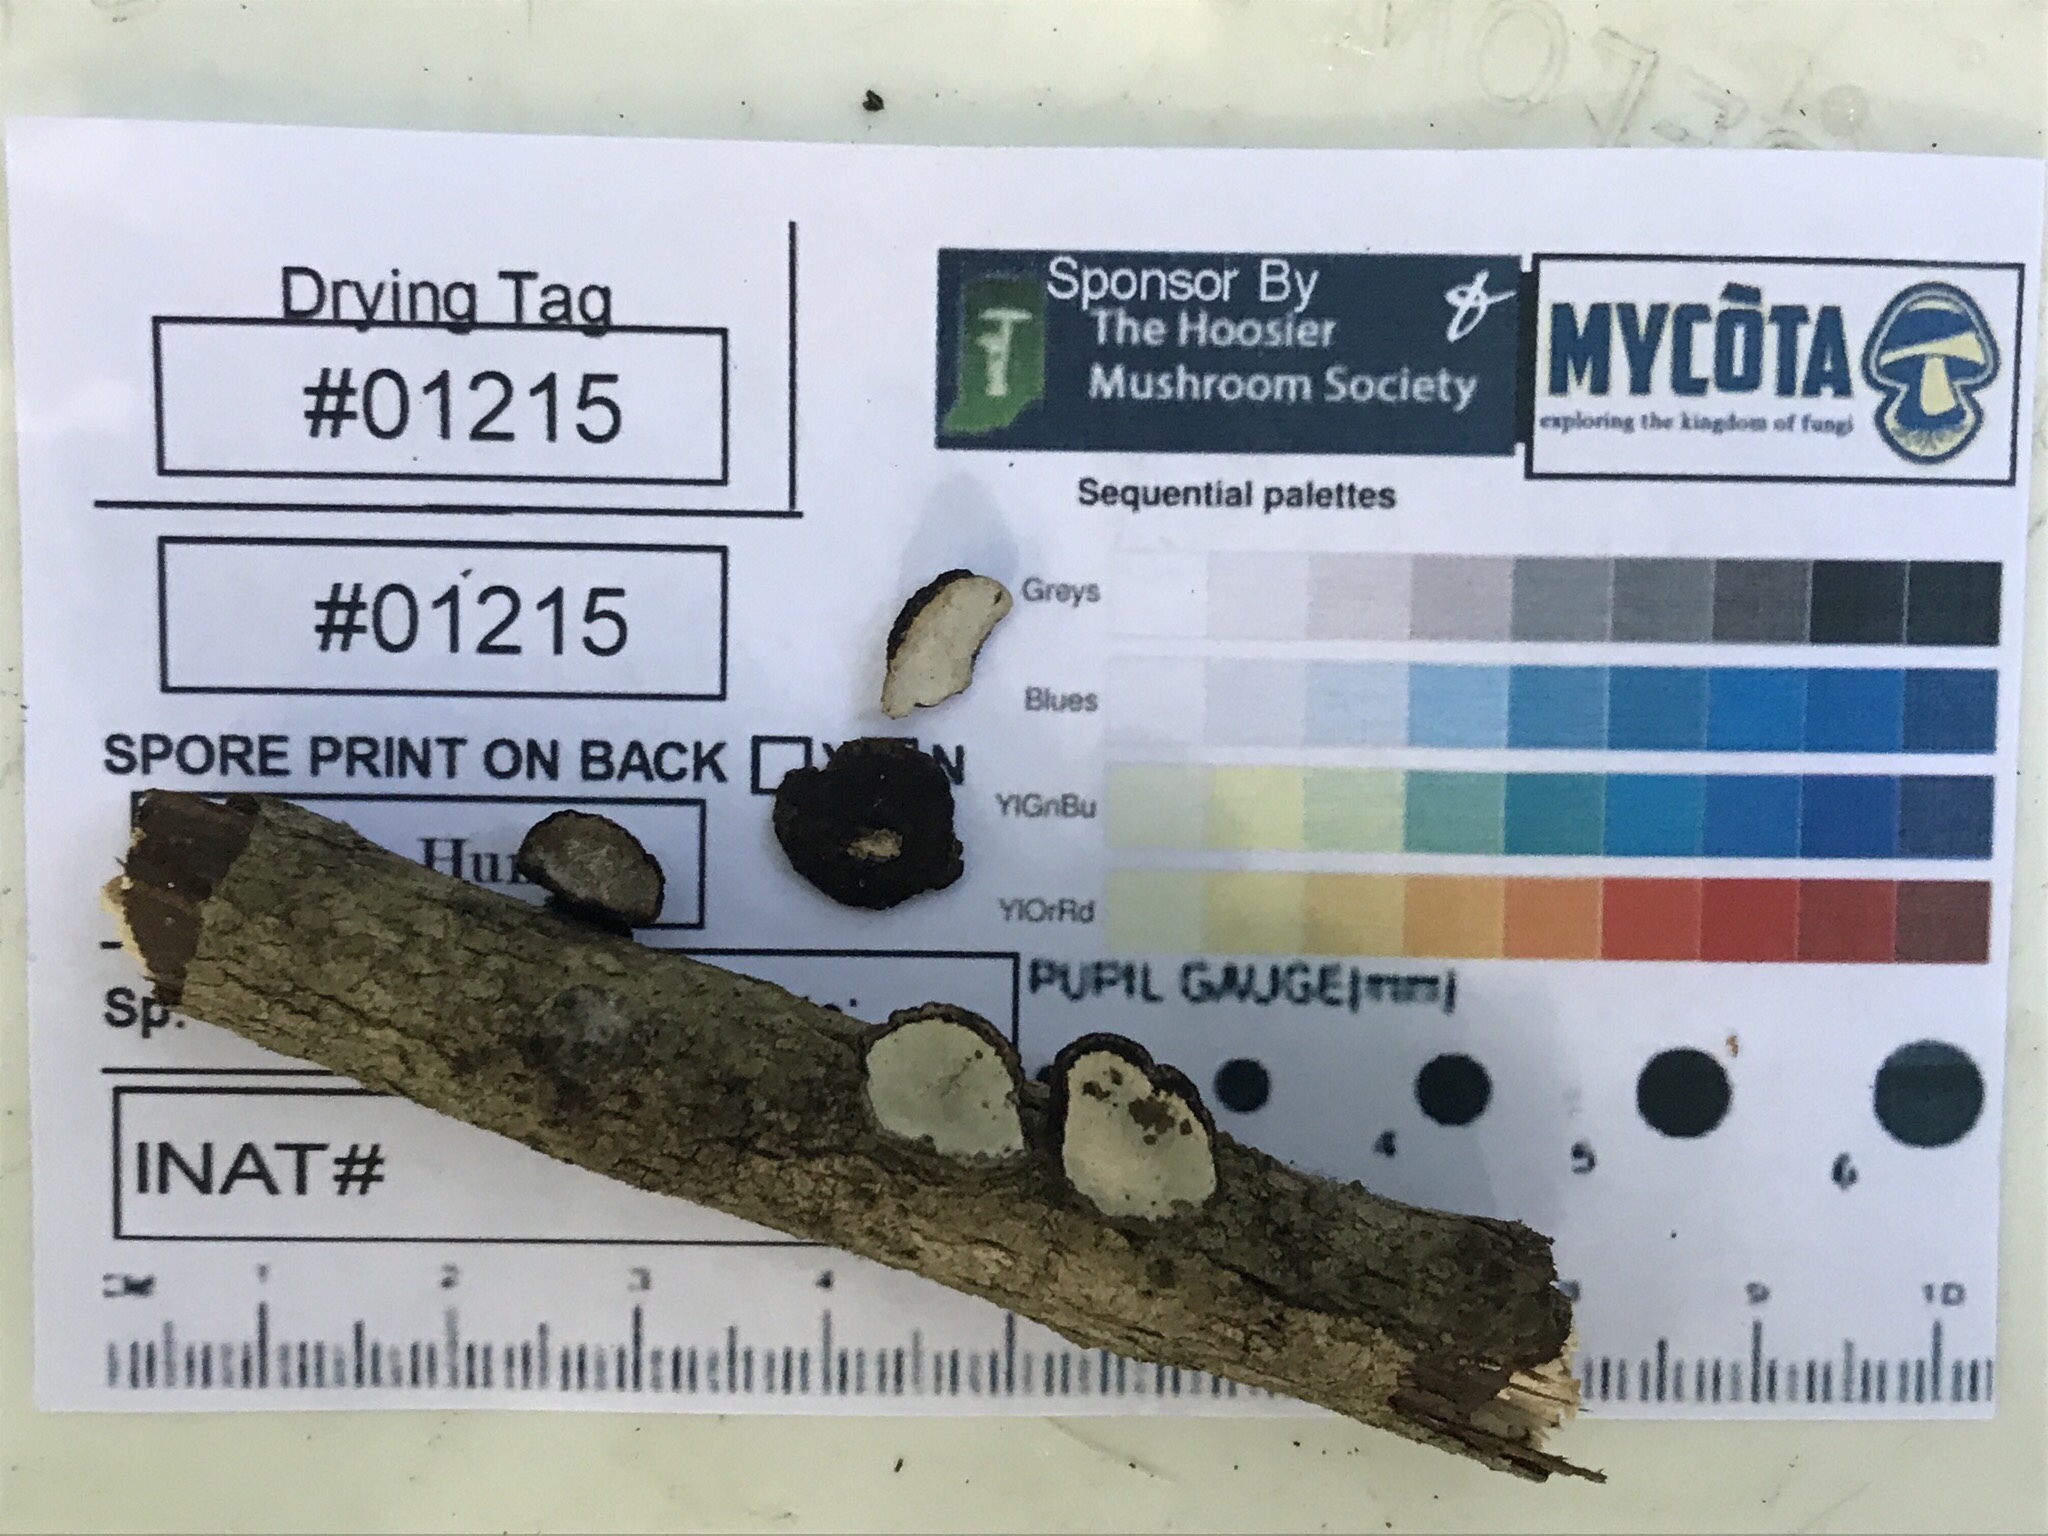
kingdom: Fungi
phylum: Basidiomycota
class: Agaricomycetes
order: Polyporales
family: Polyporaceae
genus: Podofomes
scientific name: Podofomes stereoides
